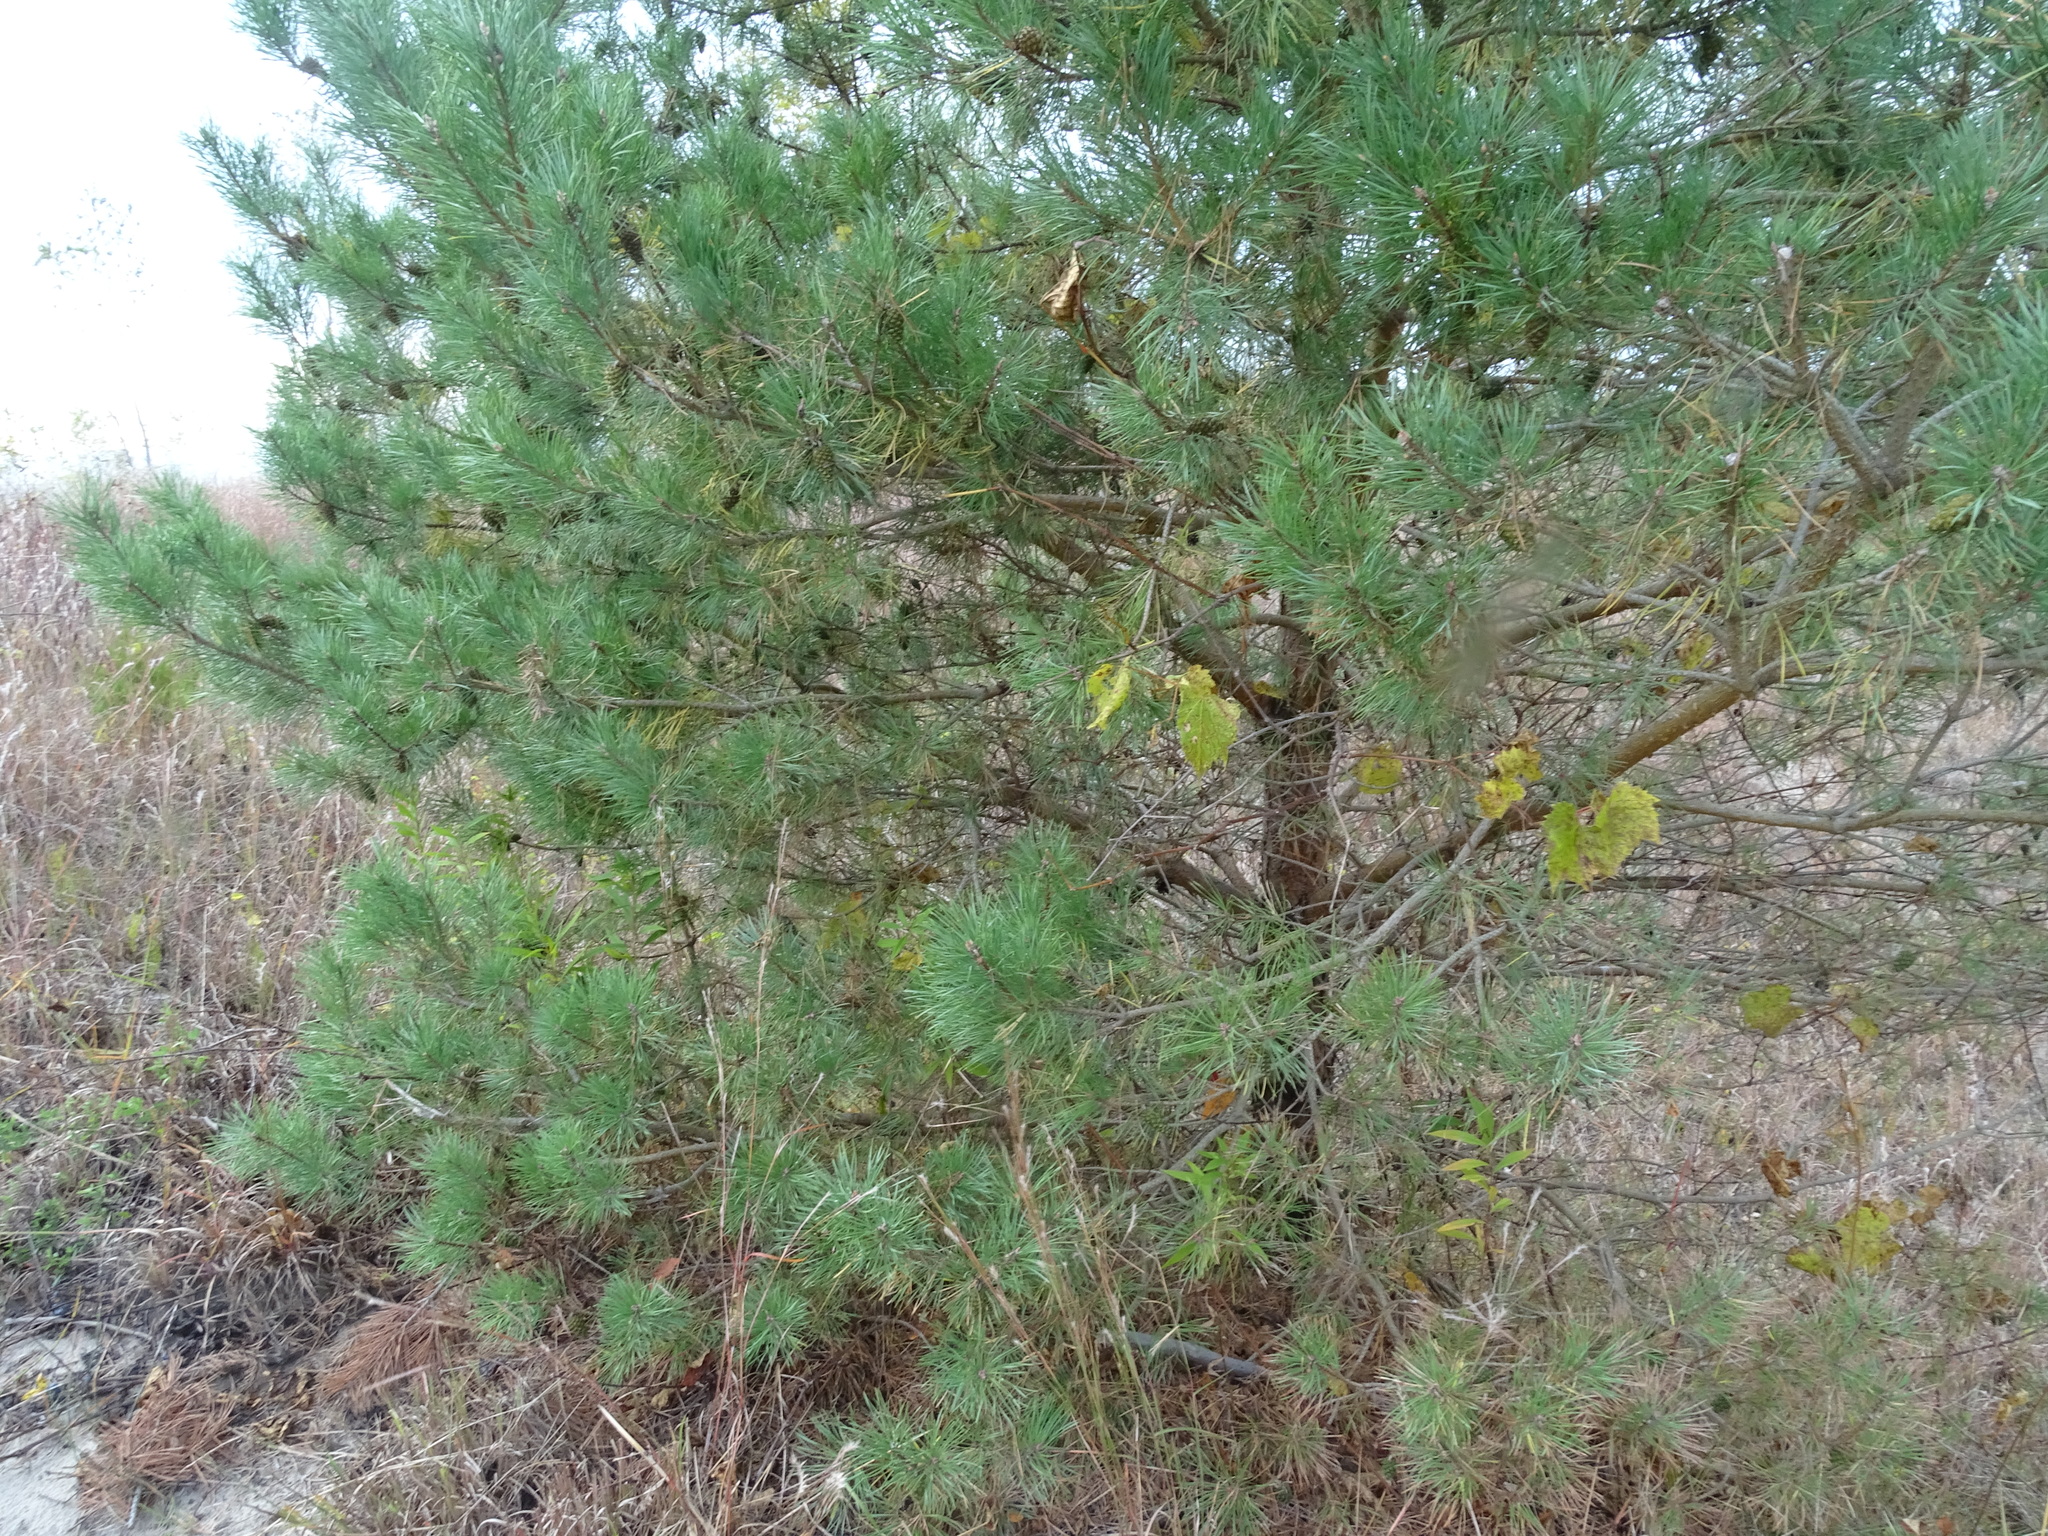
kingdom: Plantae
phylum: Tracheophyta
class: Pinopsida
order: Pinales
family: Pinaceae
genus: Pinus
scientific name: Pinus sylvestris
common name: Scots pine
